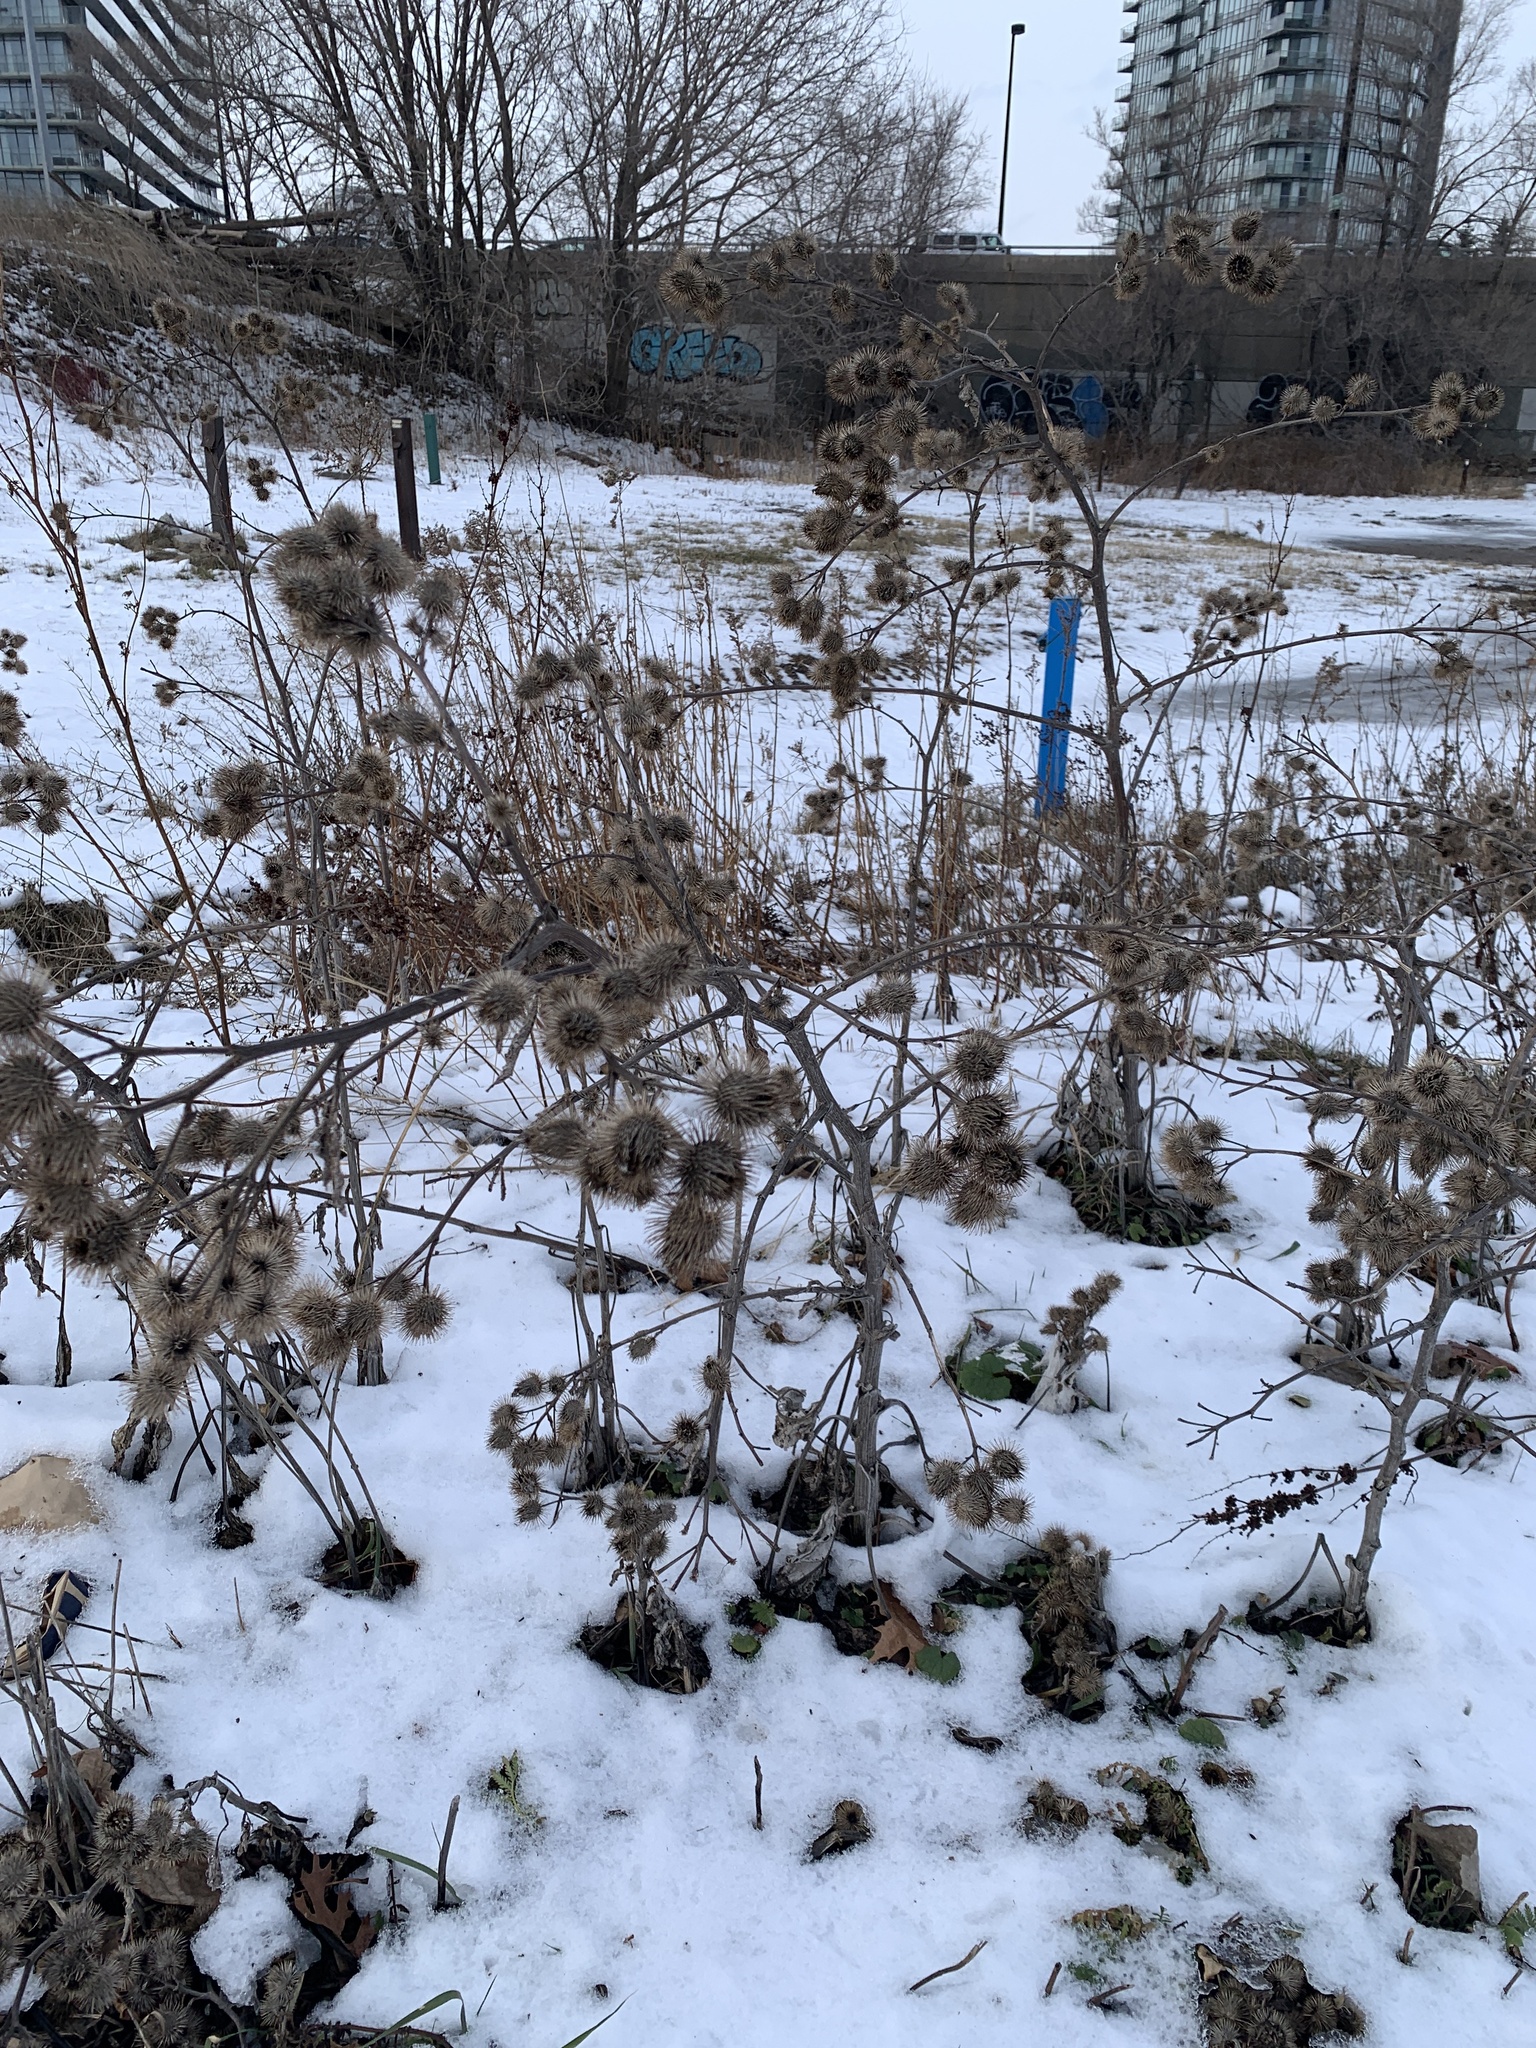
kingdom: Plantae
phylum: Tracheophyta
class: Magnoliopsida
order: Asterales
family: Asteraceae
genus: Arctium
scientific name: Arctium lappa
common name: Greater burdock
